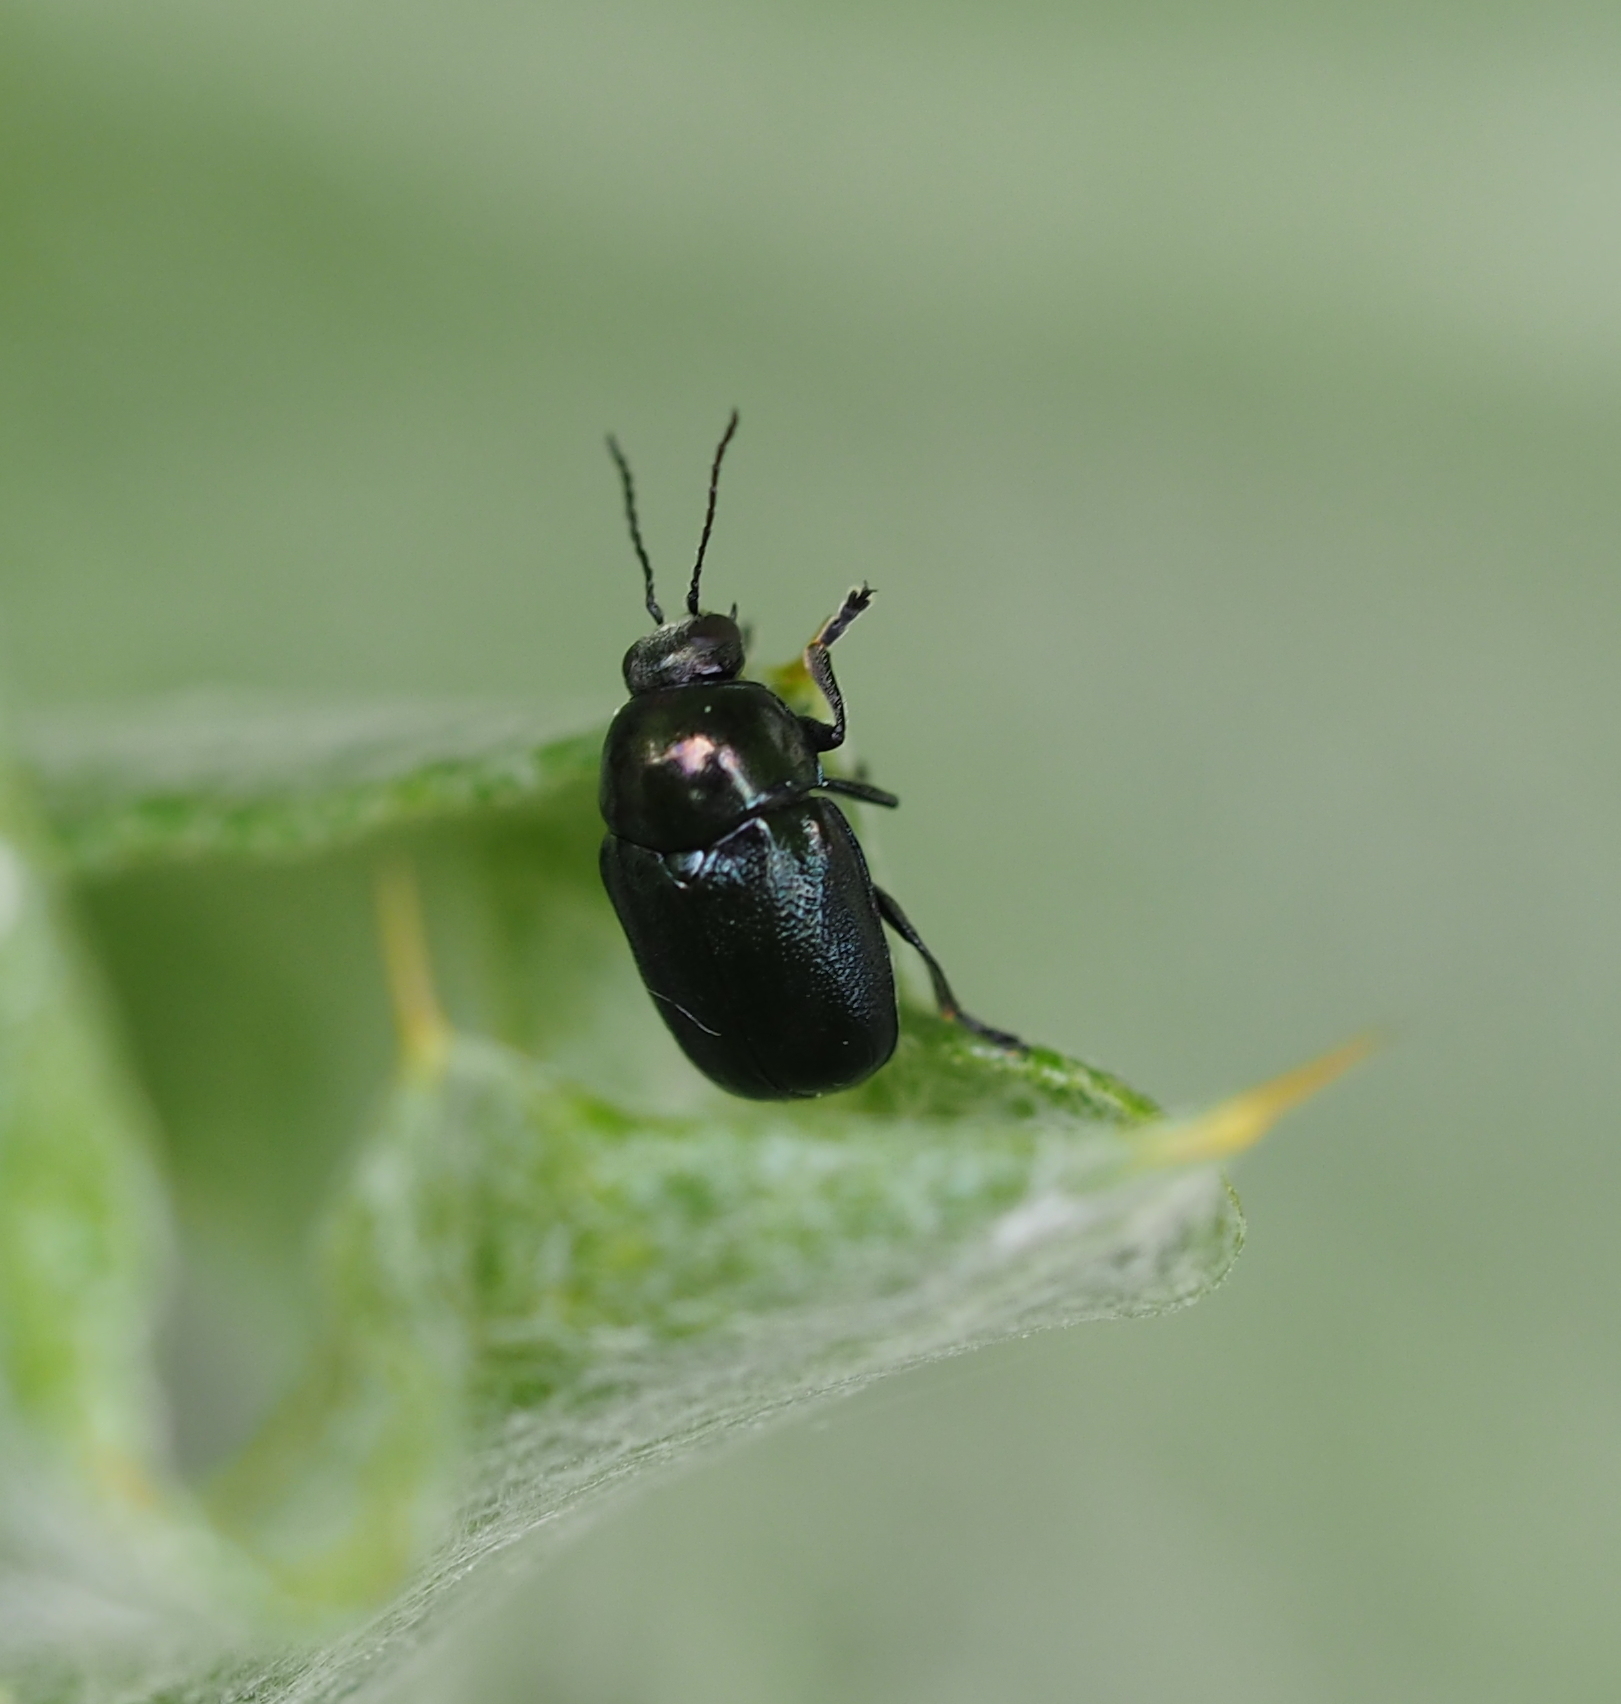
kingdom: Animalia
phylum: Arthropoda
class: Insecta
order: Coleoptera
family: Chrysomelidae
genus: Cryptocephalus
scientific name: Cryptocephalus violaceus
